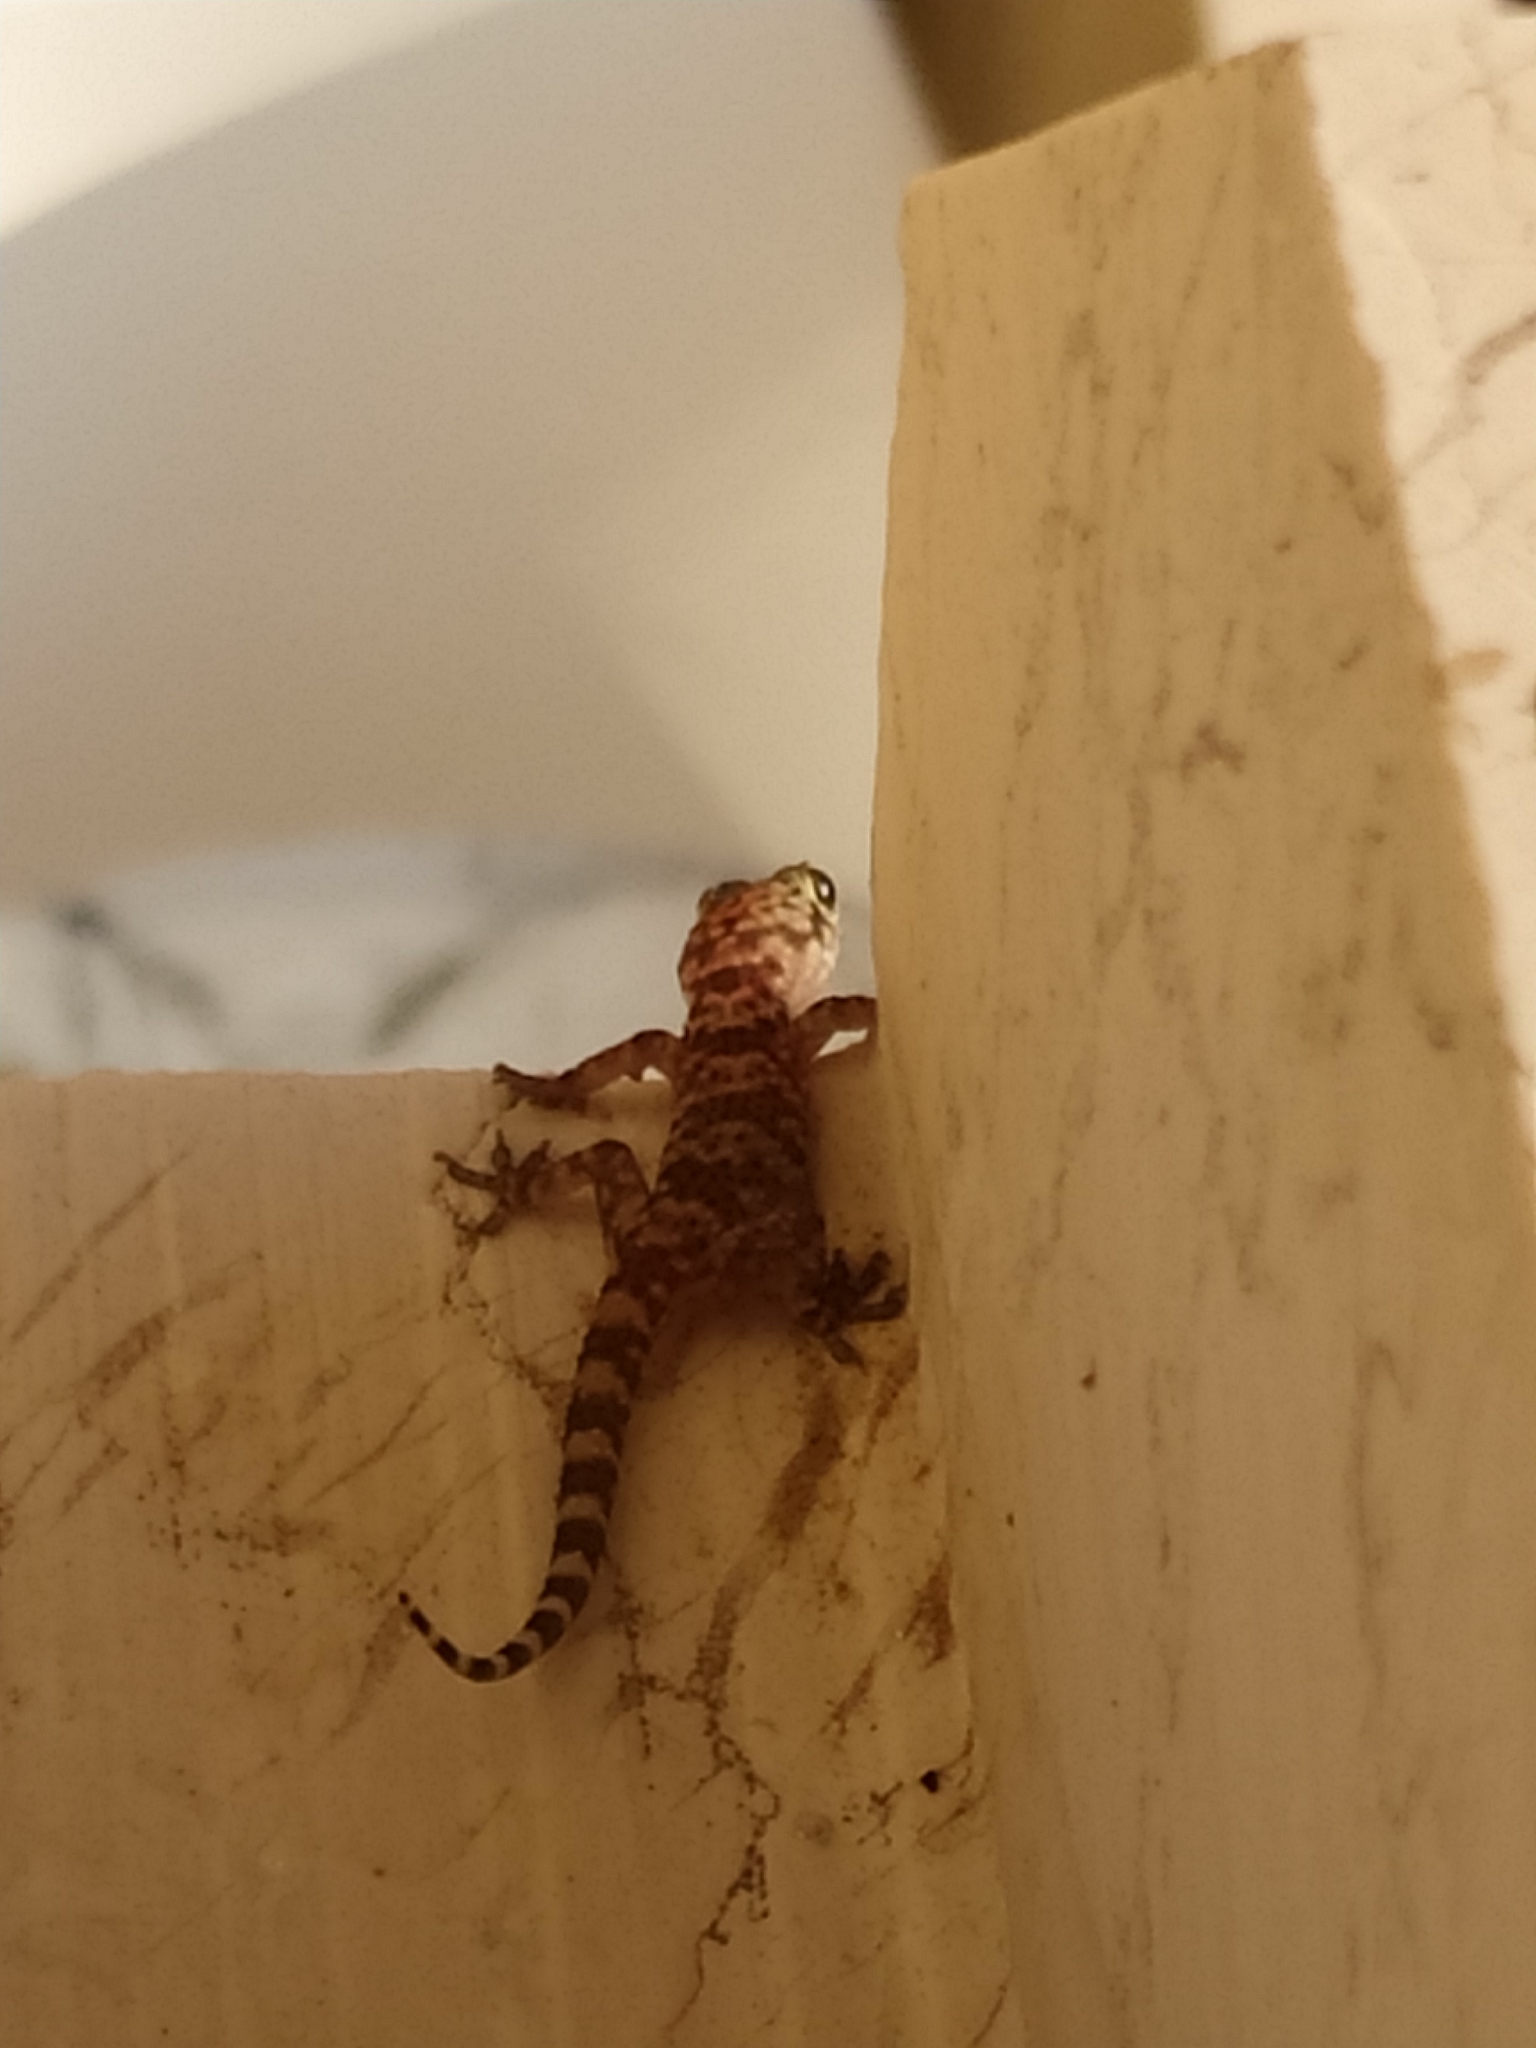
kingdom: Animalia
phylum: Chordata
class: Squamata
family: Gekkonidae
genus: Hemidactylus
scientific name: Hemidactylus turcicus
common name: Turkish gecko
